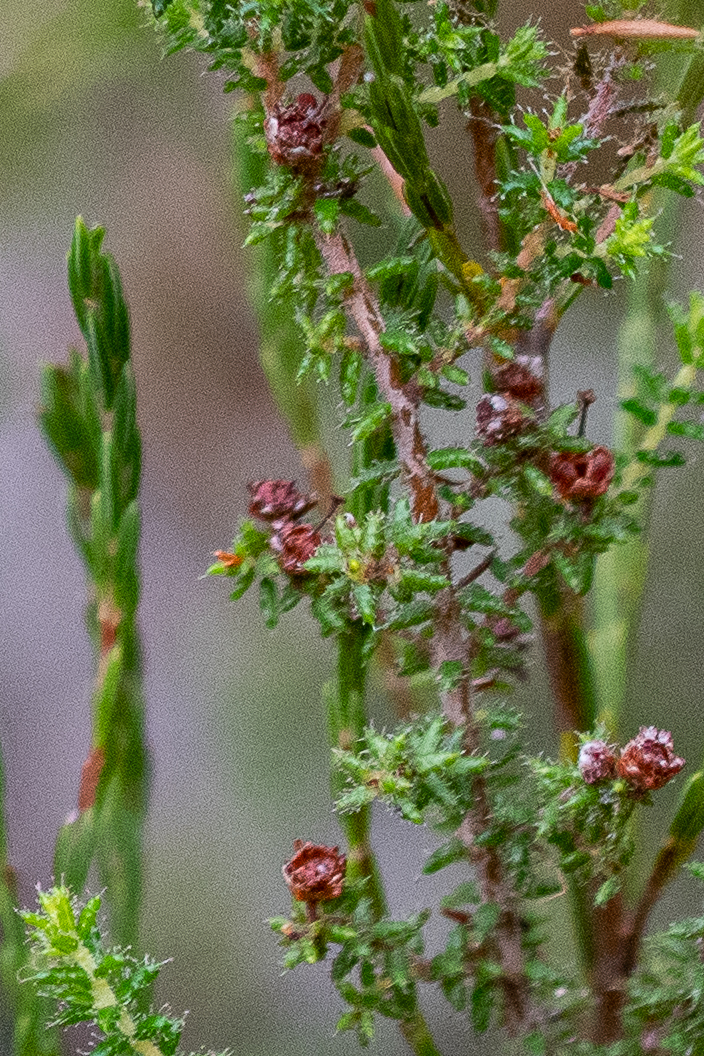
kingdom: Plantae
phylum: Tracheophyta
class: Magnoliopsida
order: Ericales
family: Ericaceae
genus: Erica
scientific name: Erica exleeana
